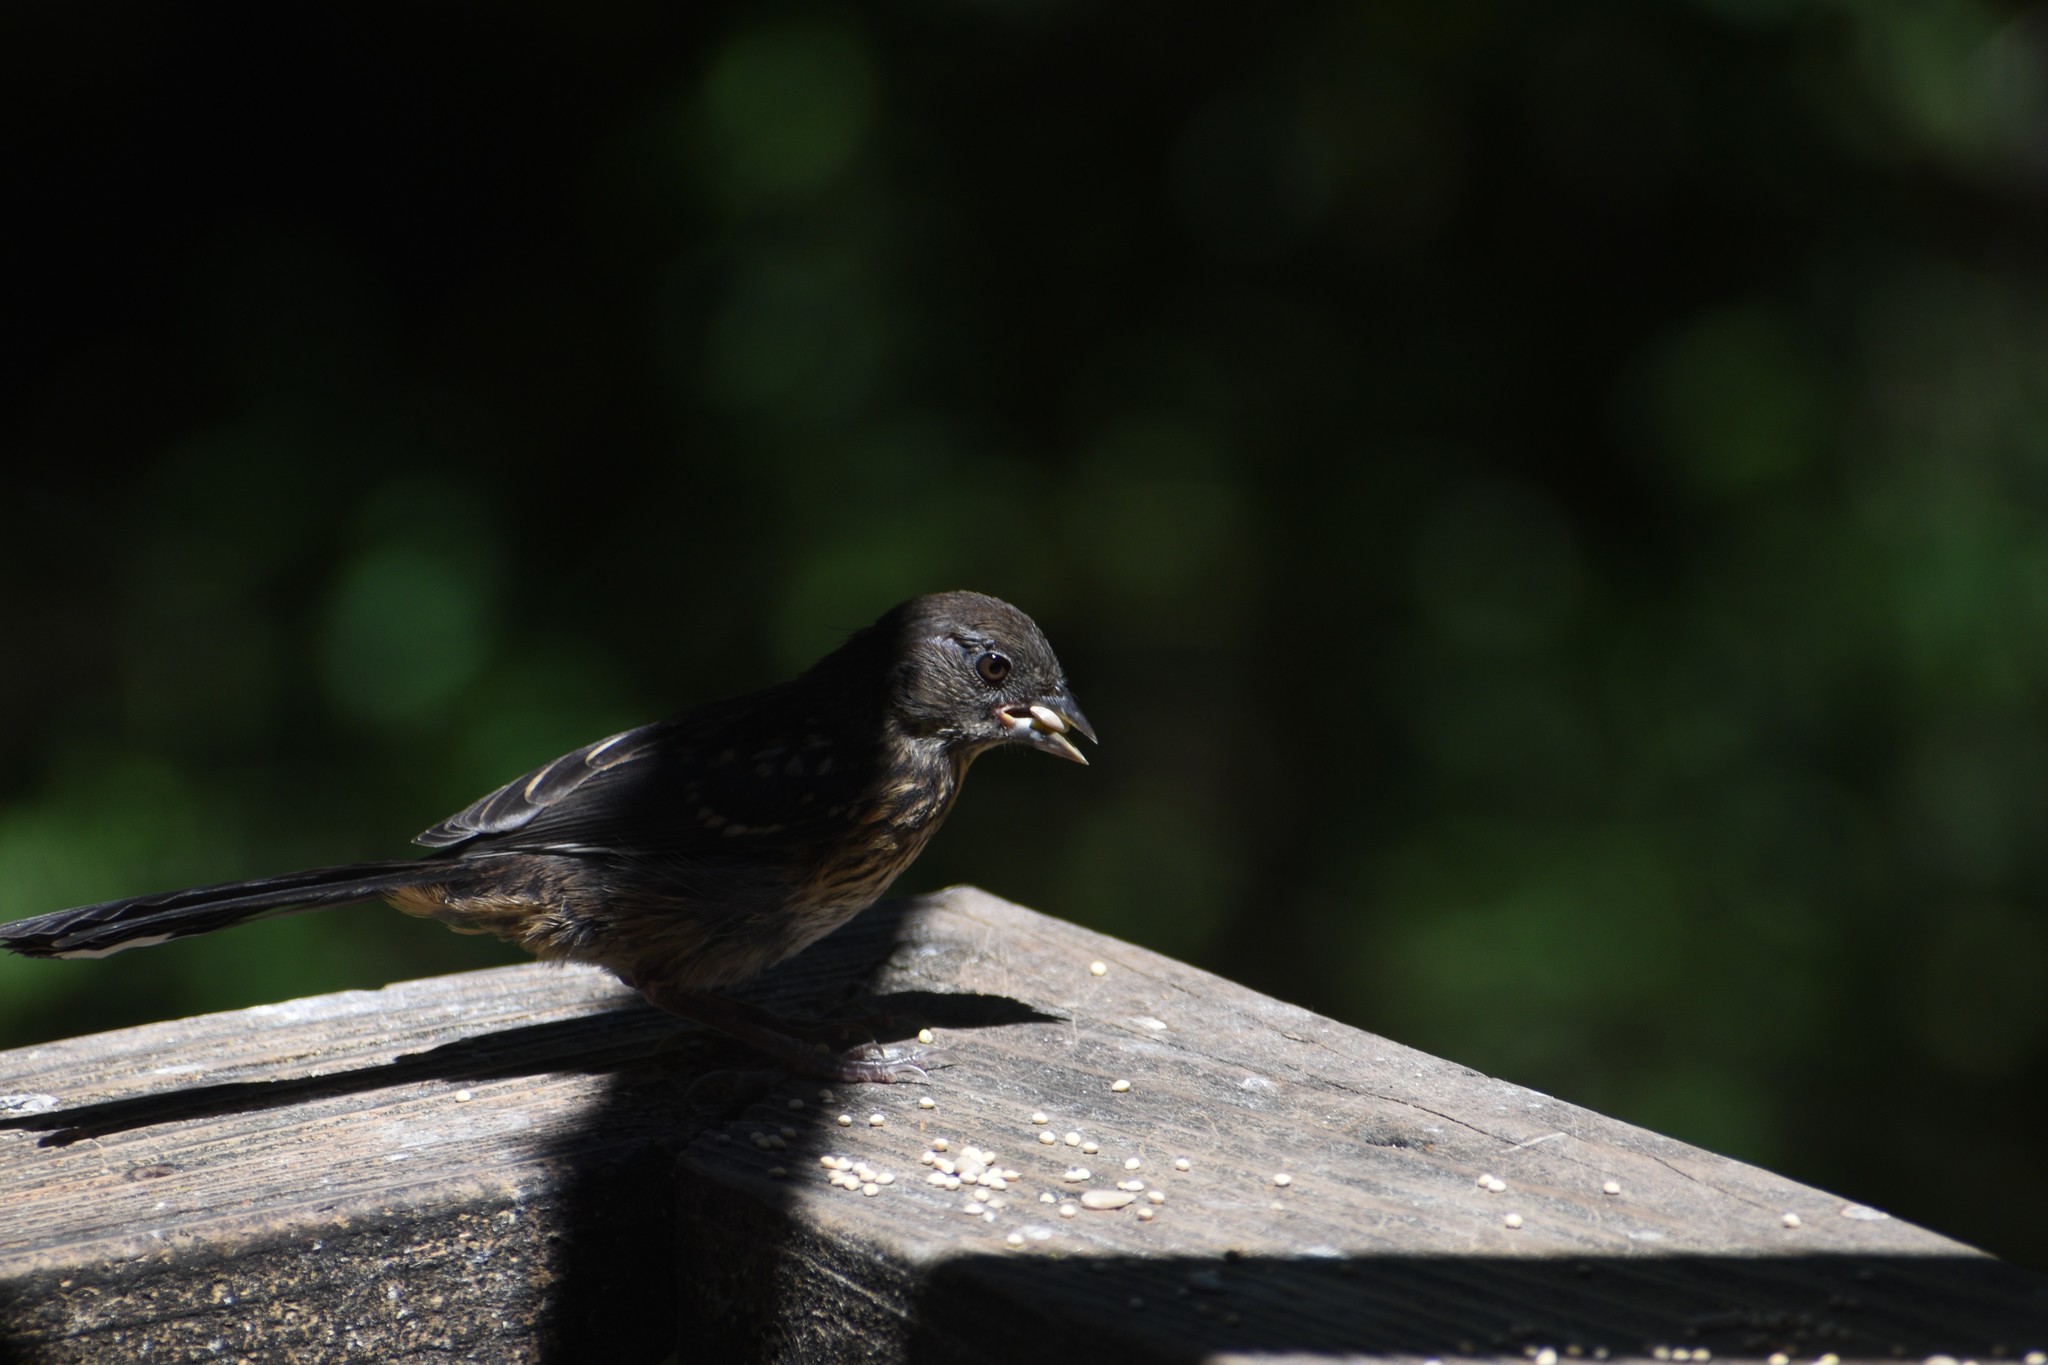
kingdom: Animalia
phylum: Chordata
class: Aves
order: Passeriformes
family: Passerellidae
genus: Pipilo
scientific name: Pipilo maculatus
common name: Spotted towhee
